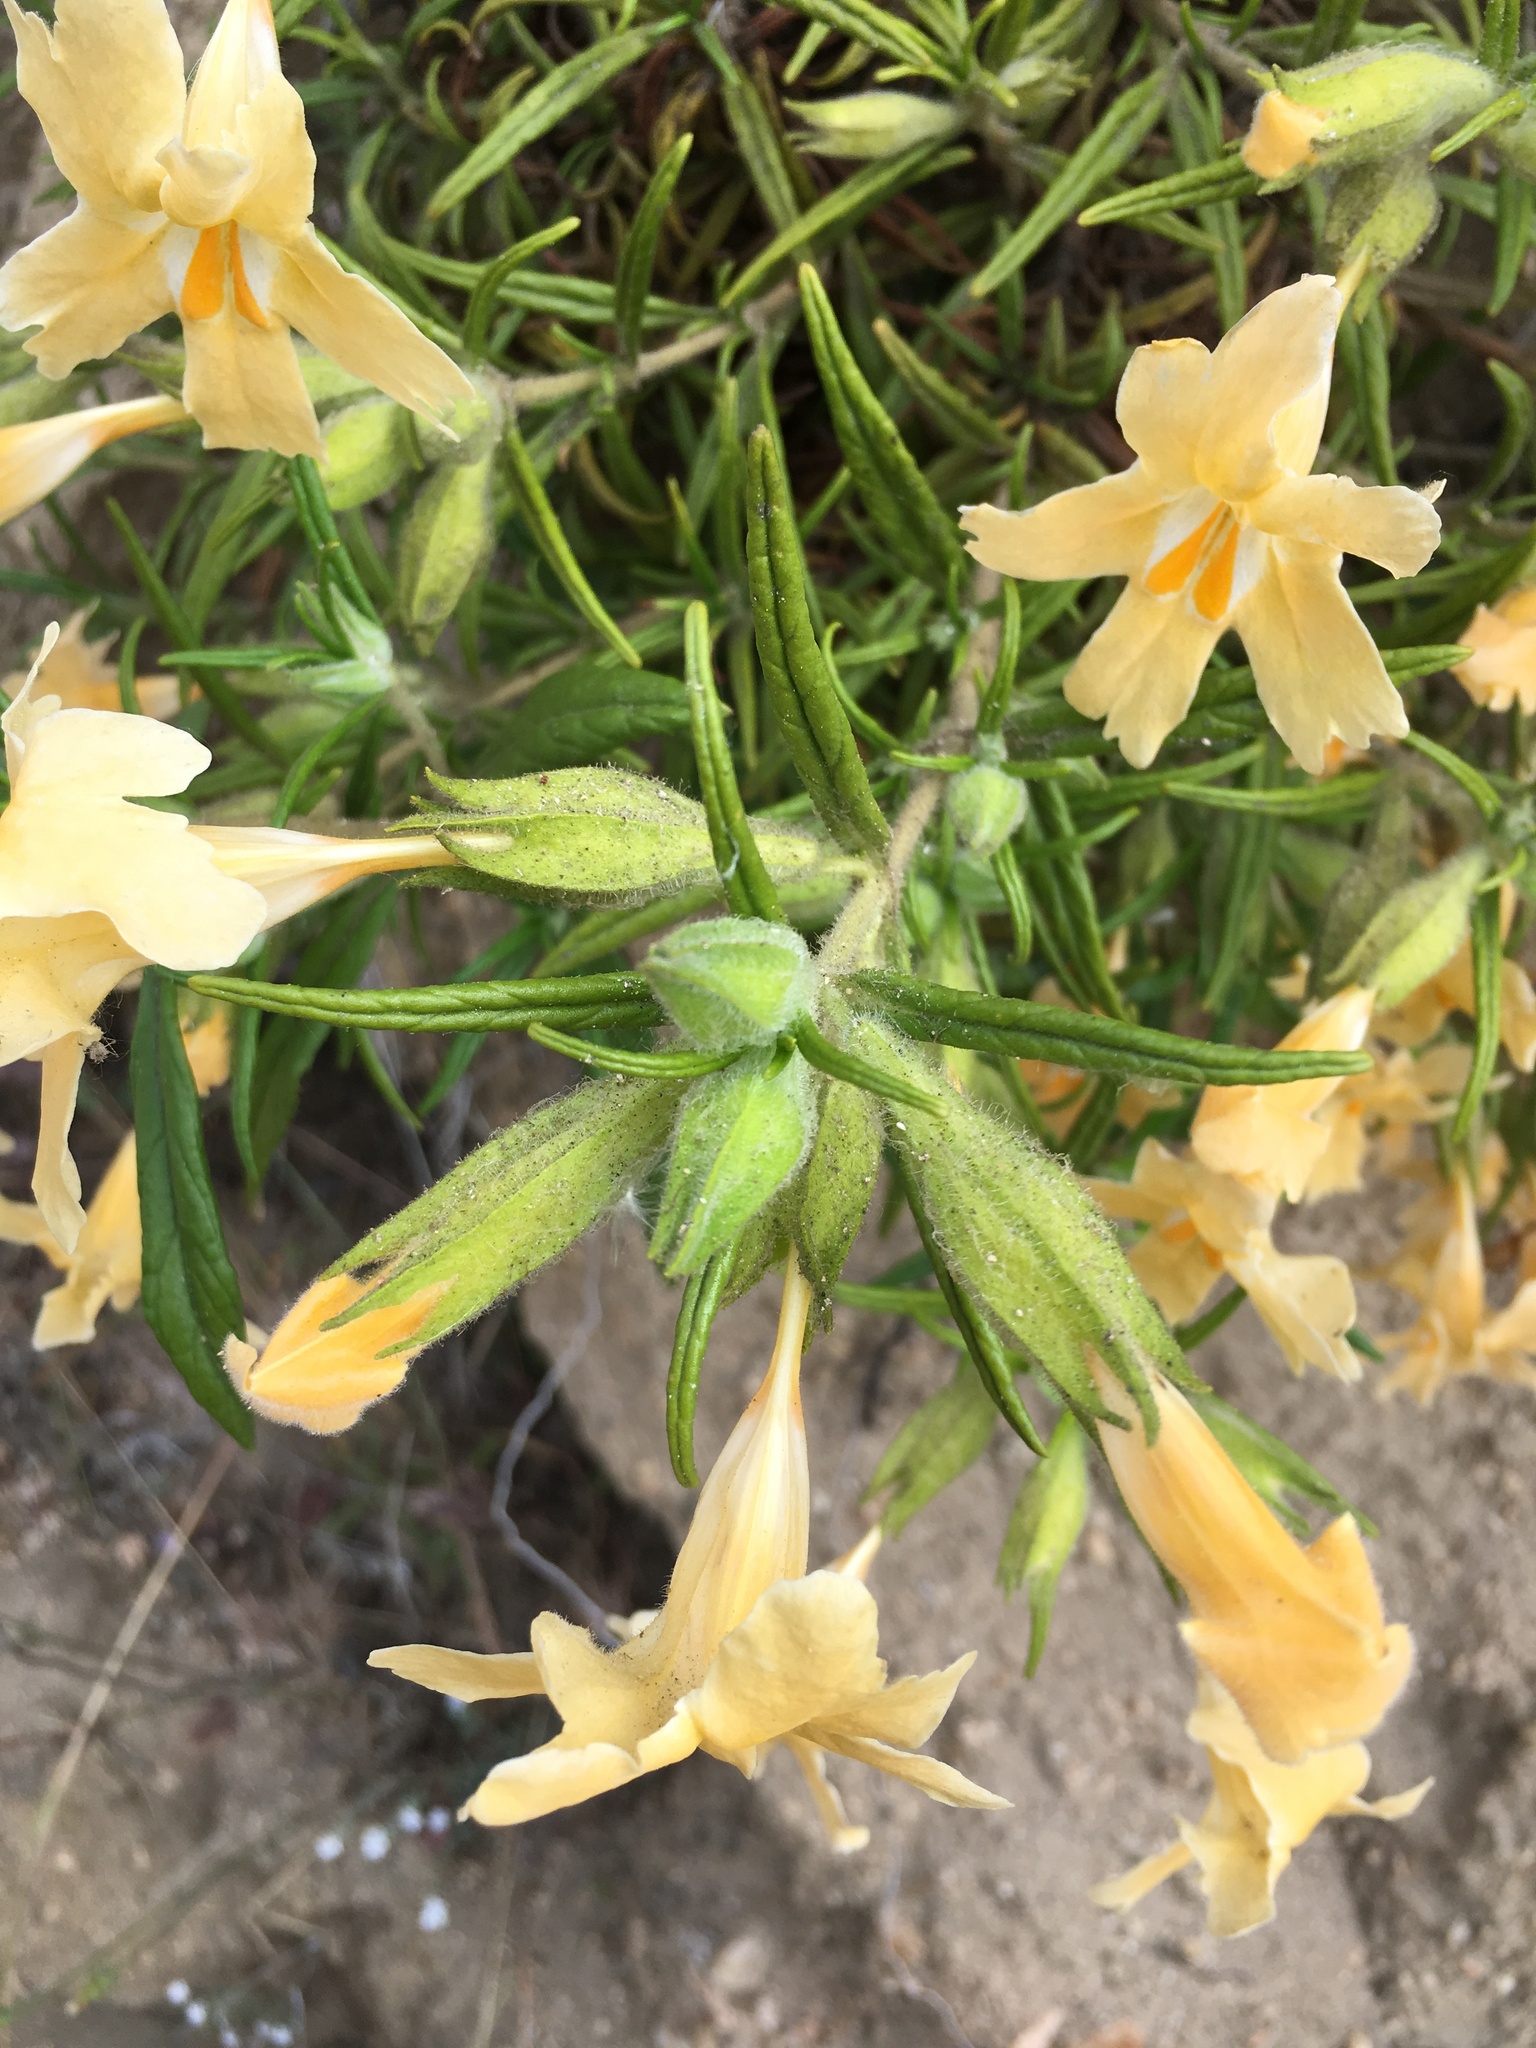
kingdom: Plantae
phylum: Tracheophyta
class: Magnoliopsida
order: Lamiales
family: Phrymaceae
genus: Diplacus
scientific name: Diplacus longiflorus
